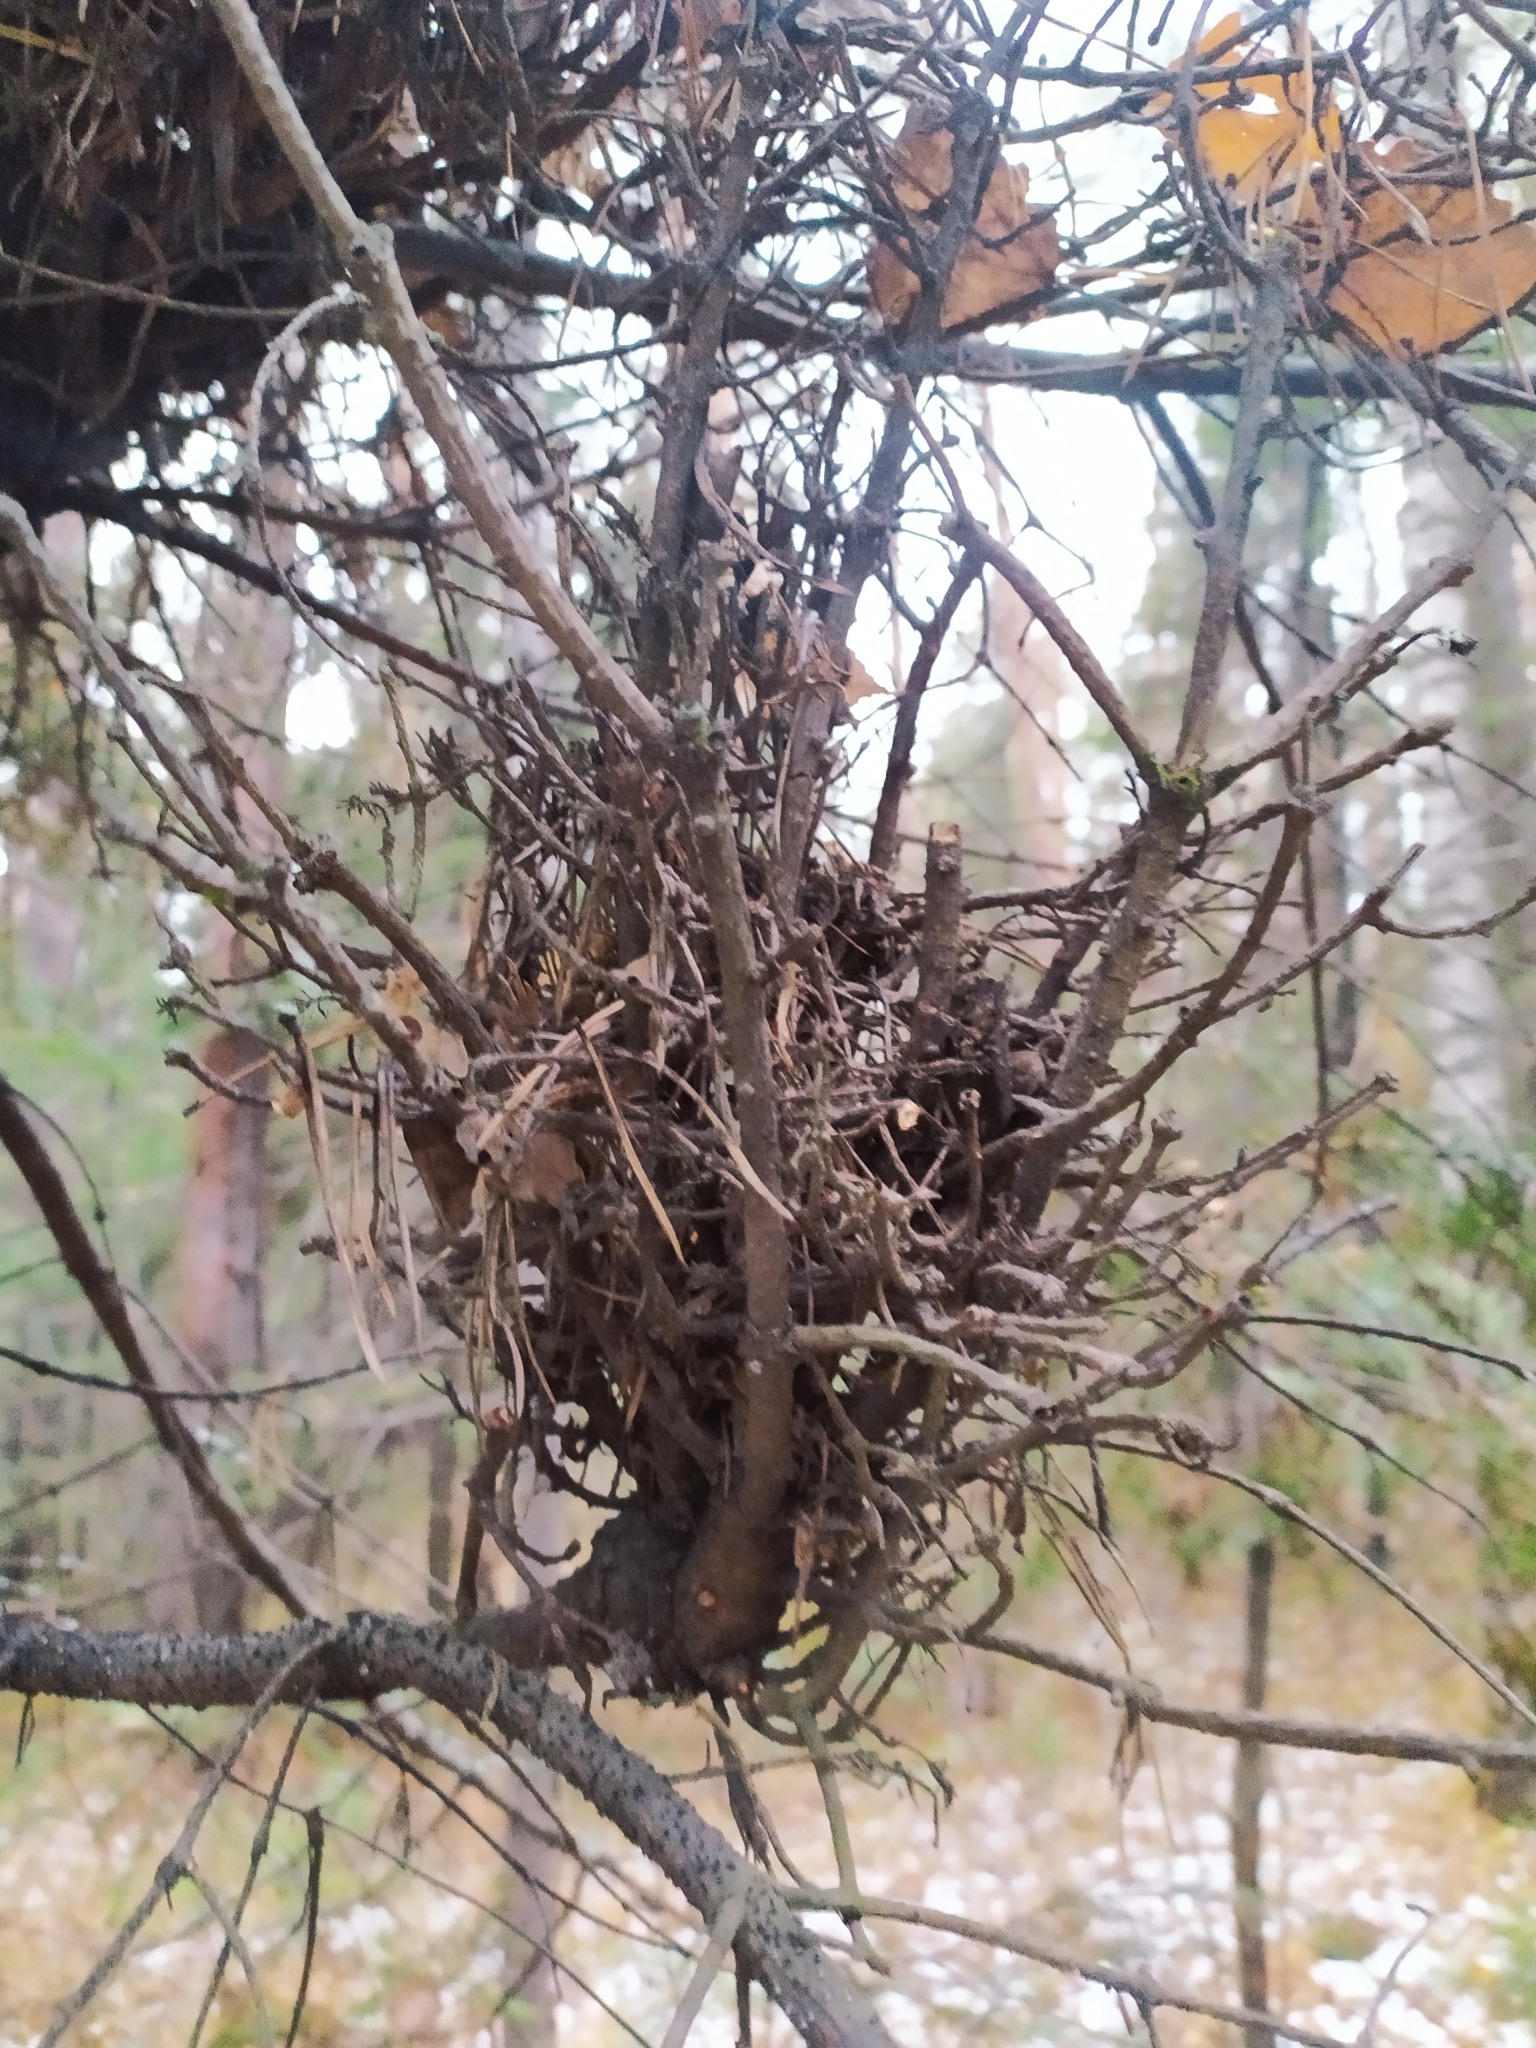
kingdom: Fungi
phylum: Basidiomycota
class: Pucciniomycetes
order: Pucciniales
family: Pucciniastraceae
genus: Melampsorella
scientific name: Melampsorella elatina
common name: Fir broom rust
